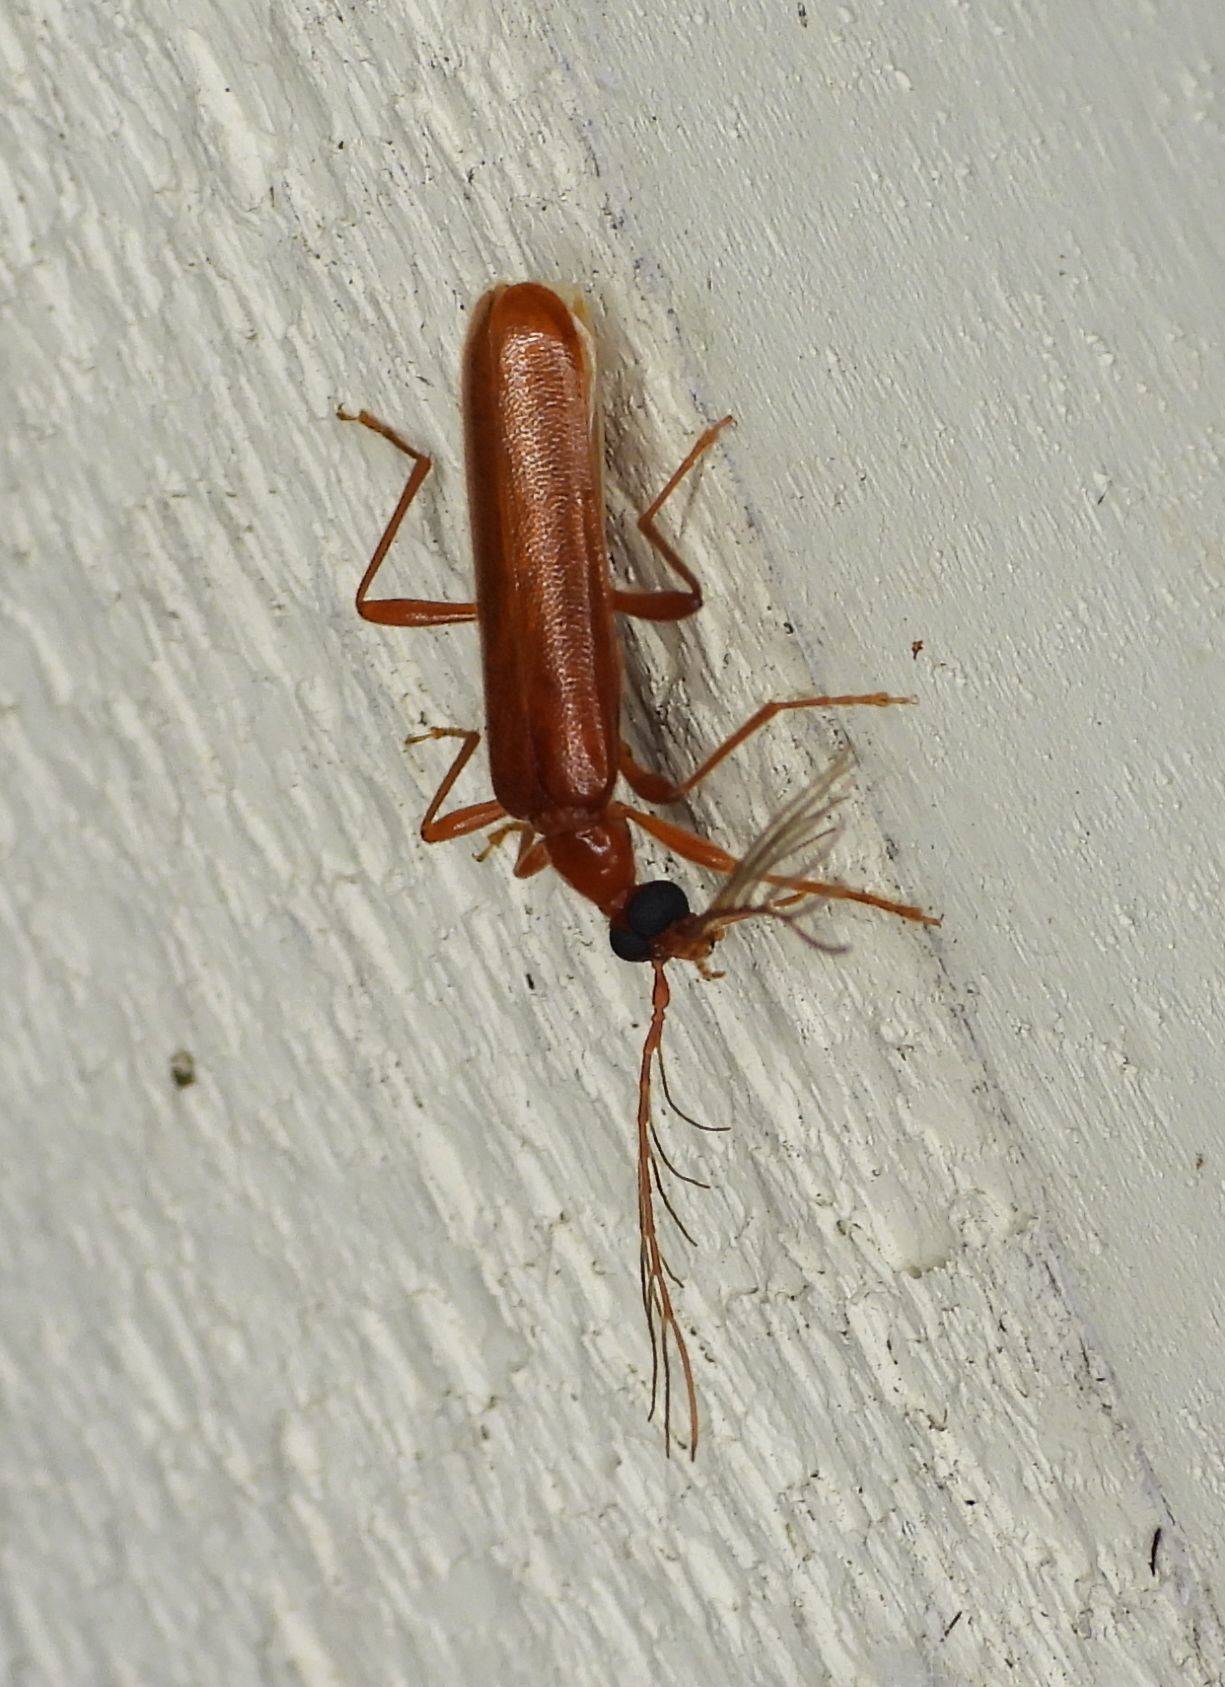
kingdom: Animalia
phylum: Arthropoda
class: Insecta
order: Coleoptera
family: Pyrochroidae
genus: Dendroides
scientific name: Dendroides concolor
